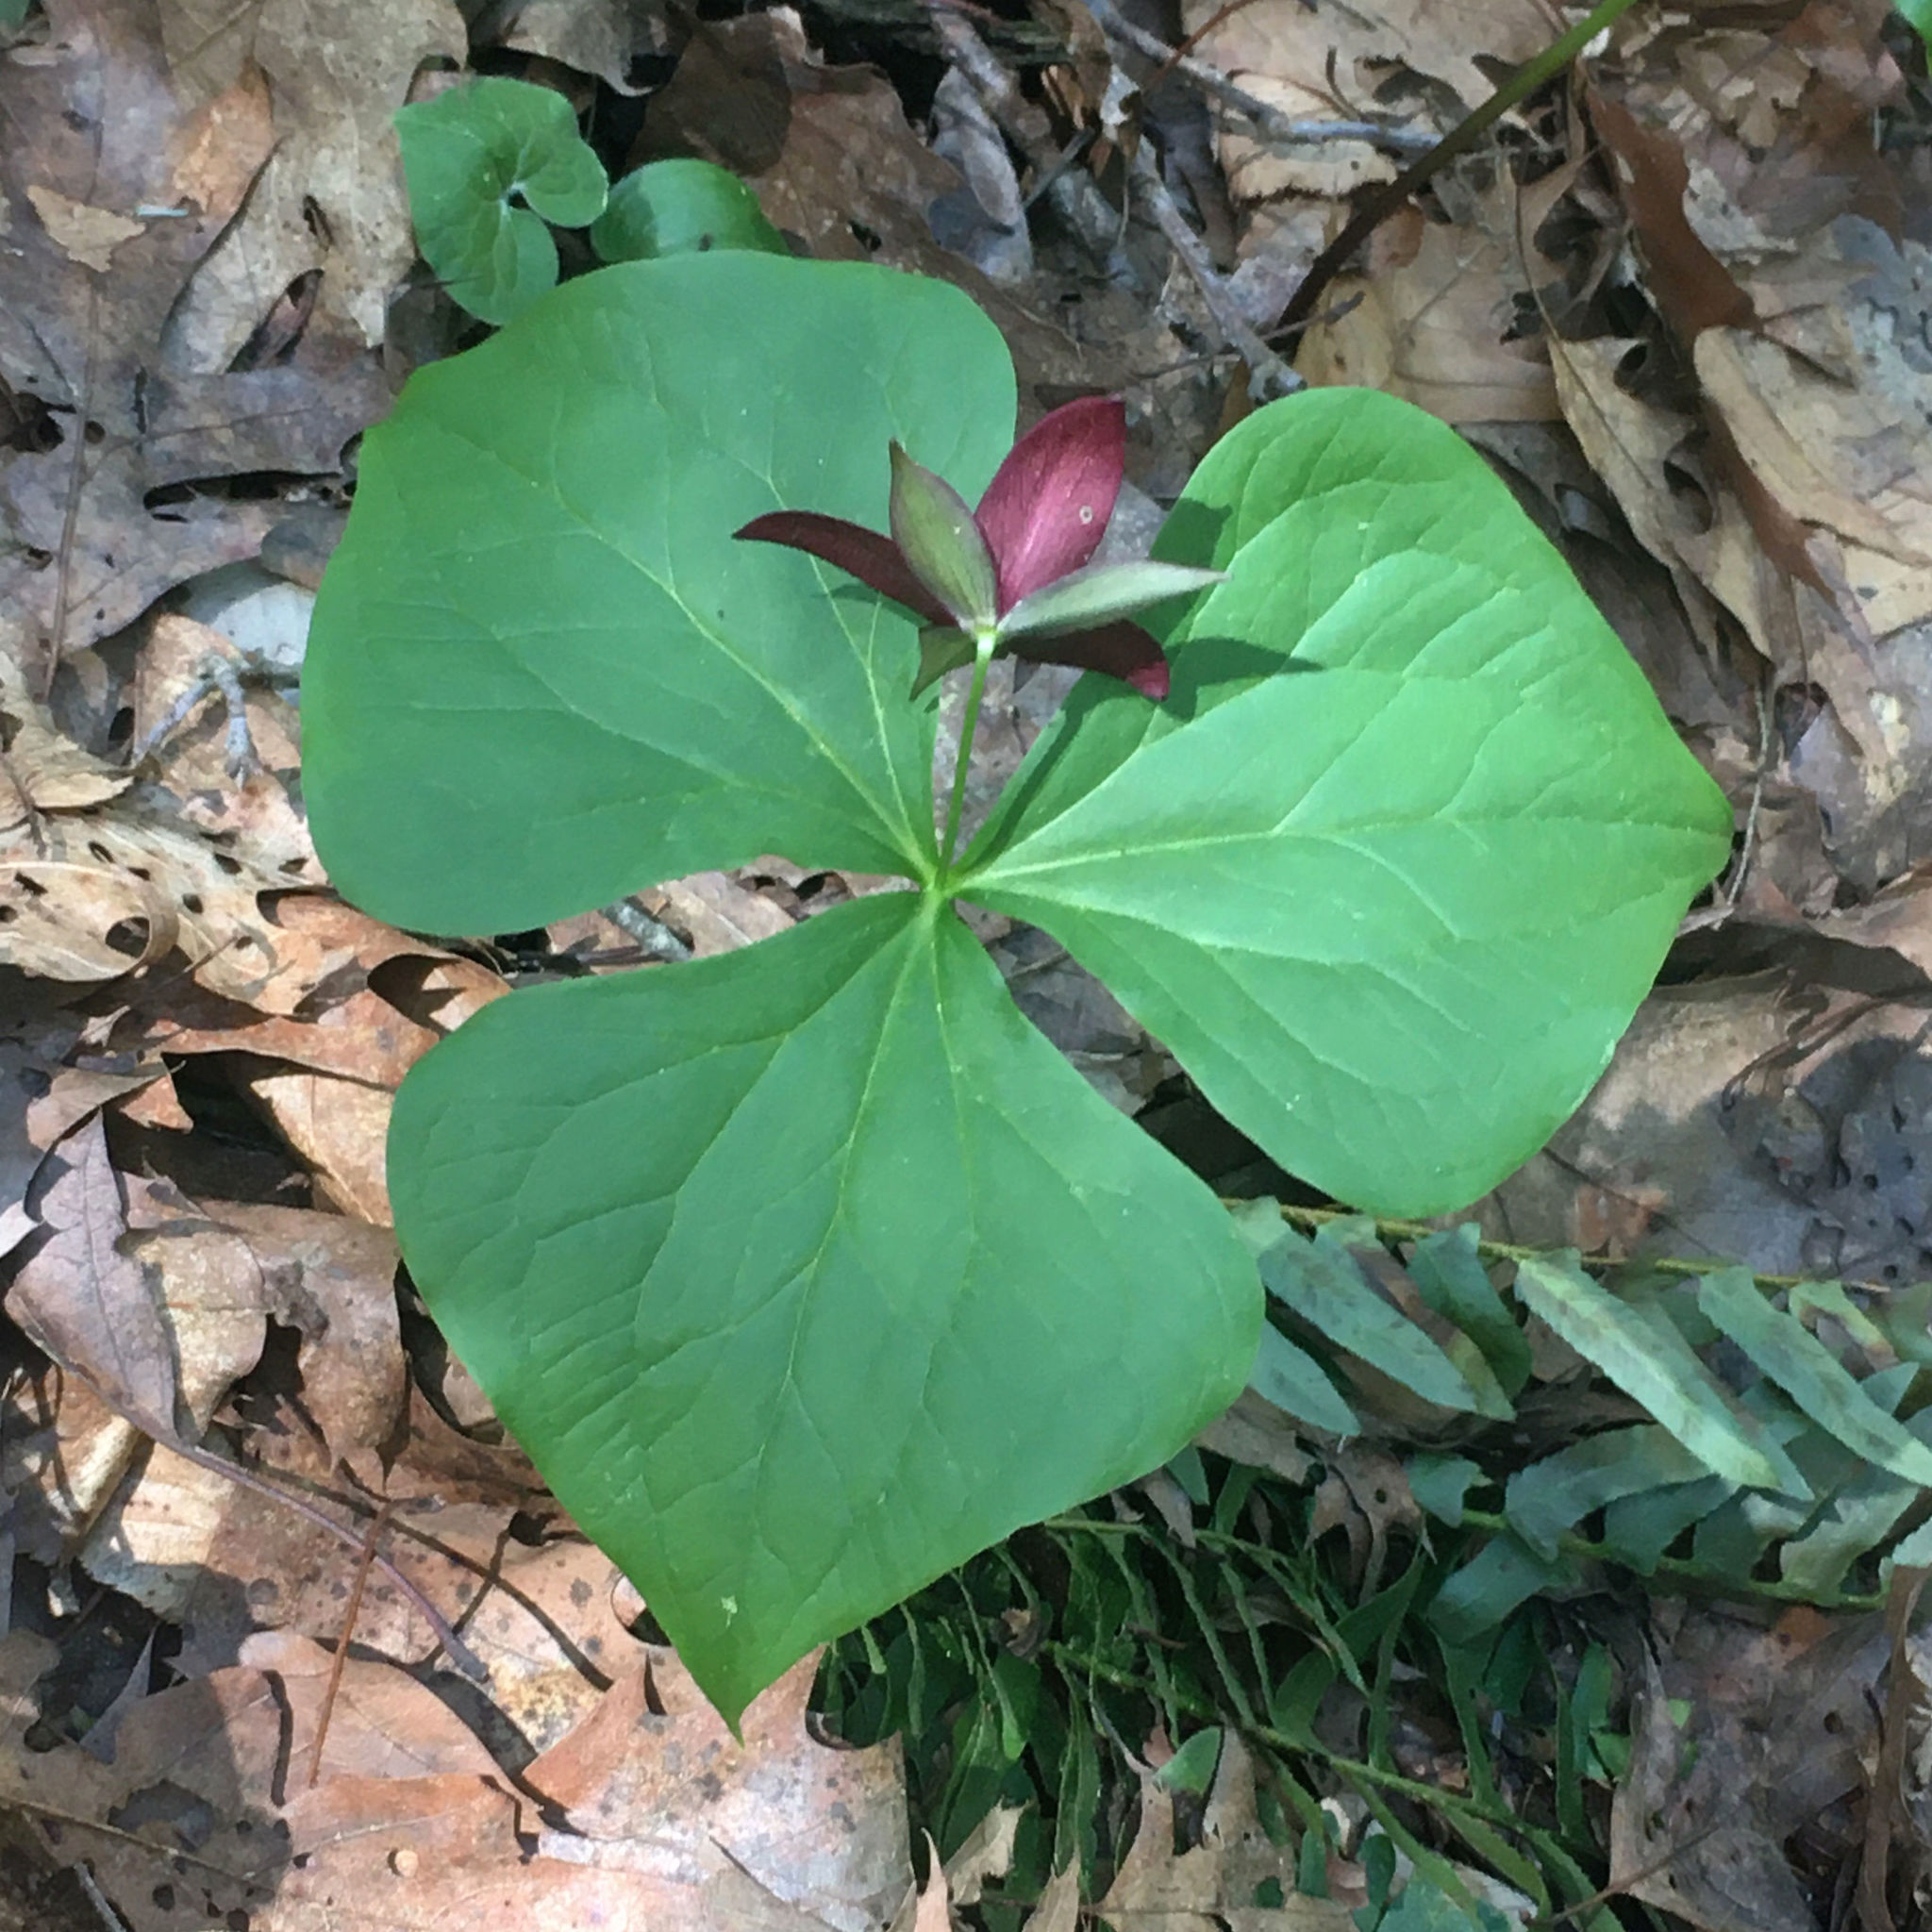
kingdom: Plantae
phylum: Tracheophyta
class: Liliopsida
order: Liliales
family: Melanthiaceae
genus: Trillium
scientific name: Trillium erectum
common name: Purple trillium
